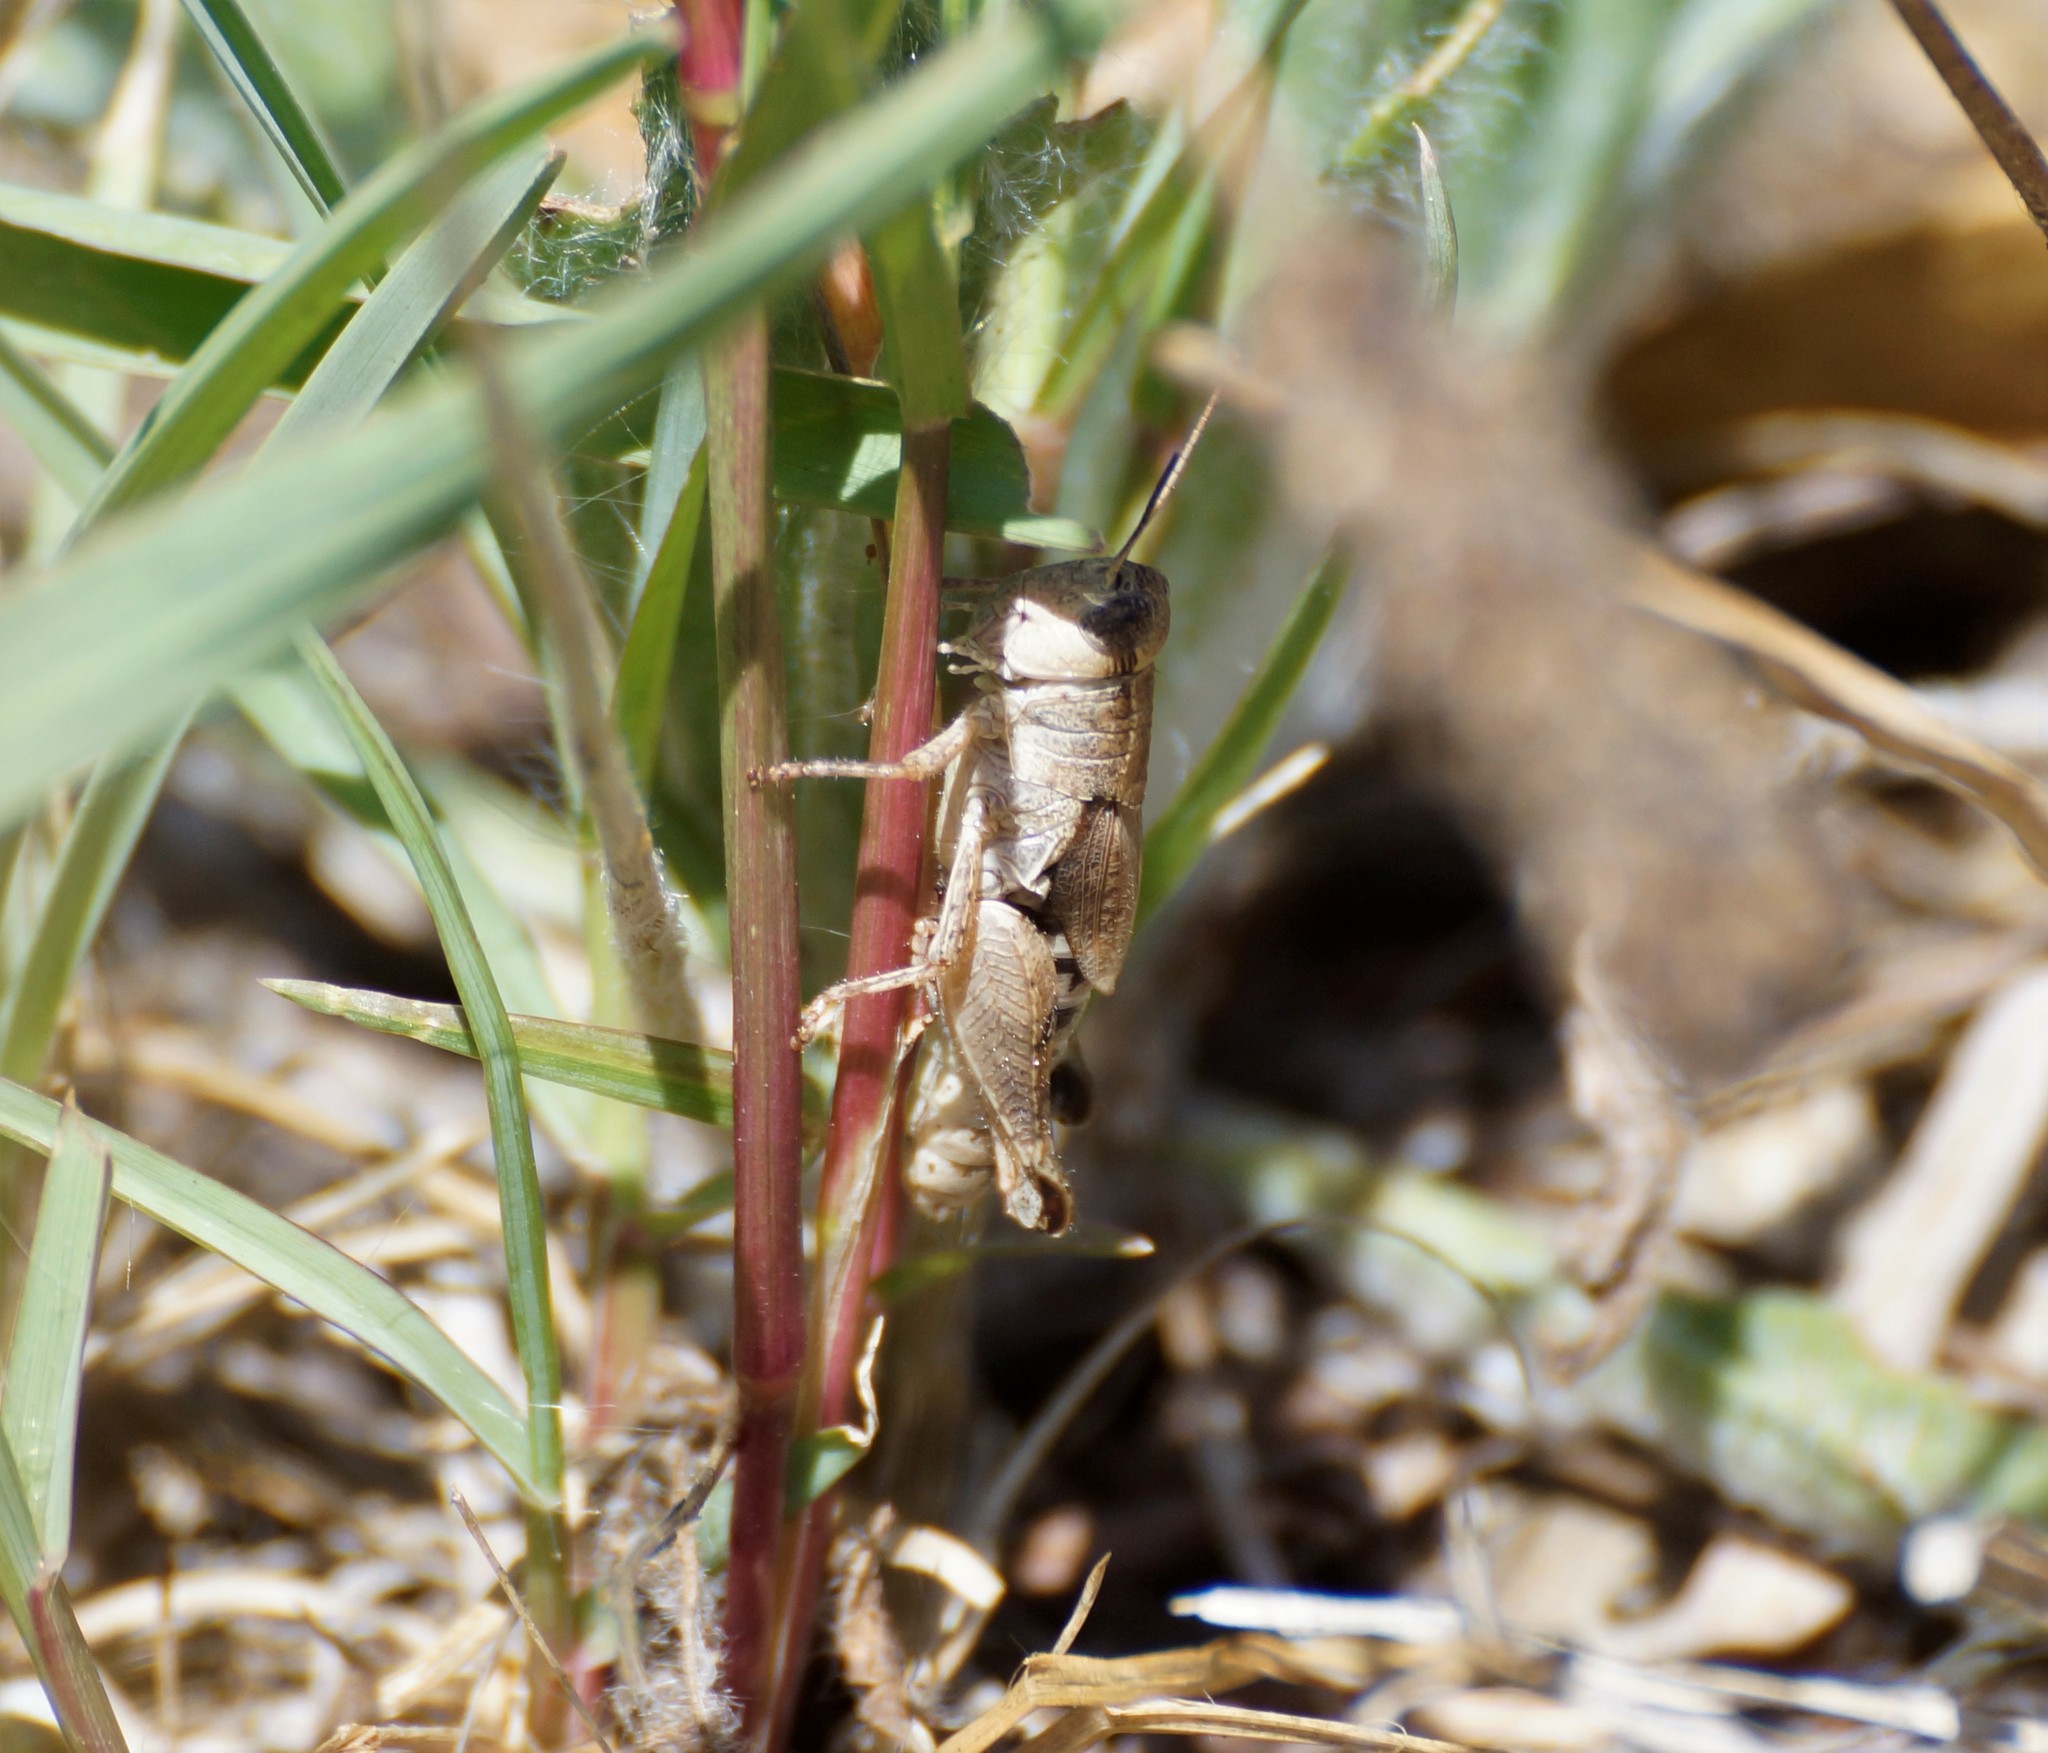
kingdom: Animalia
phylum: Arthropoda
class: Insecta
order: Orthoptera
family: Acrididae
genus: Phaulacridium
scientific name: Phaulacridium vittatum
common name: Wingless grasshopper
